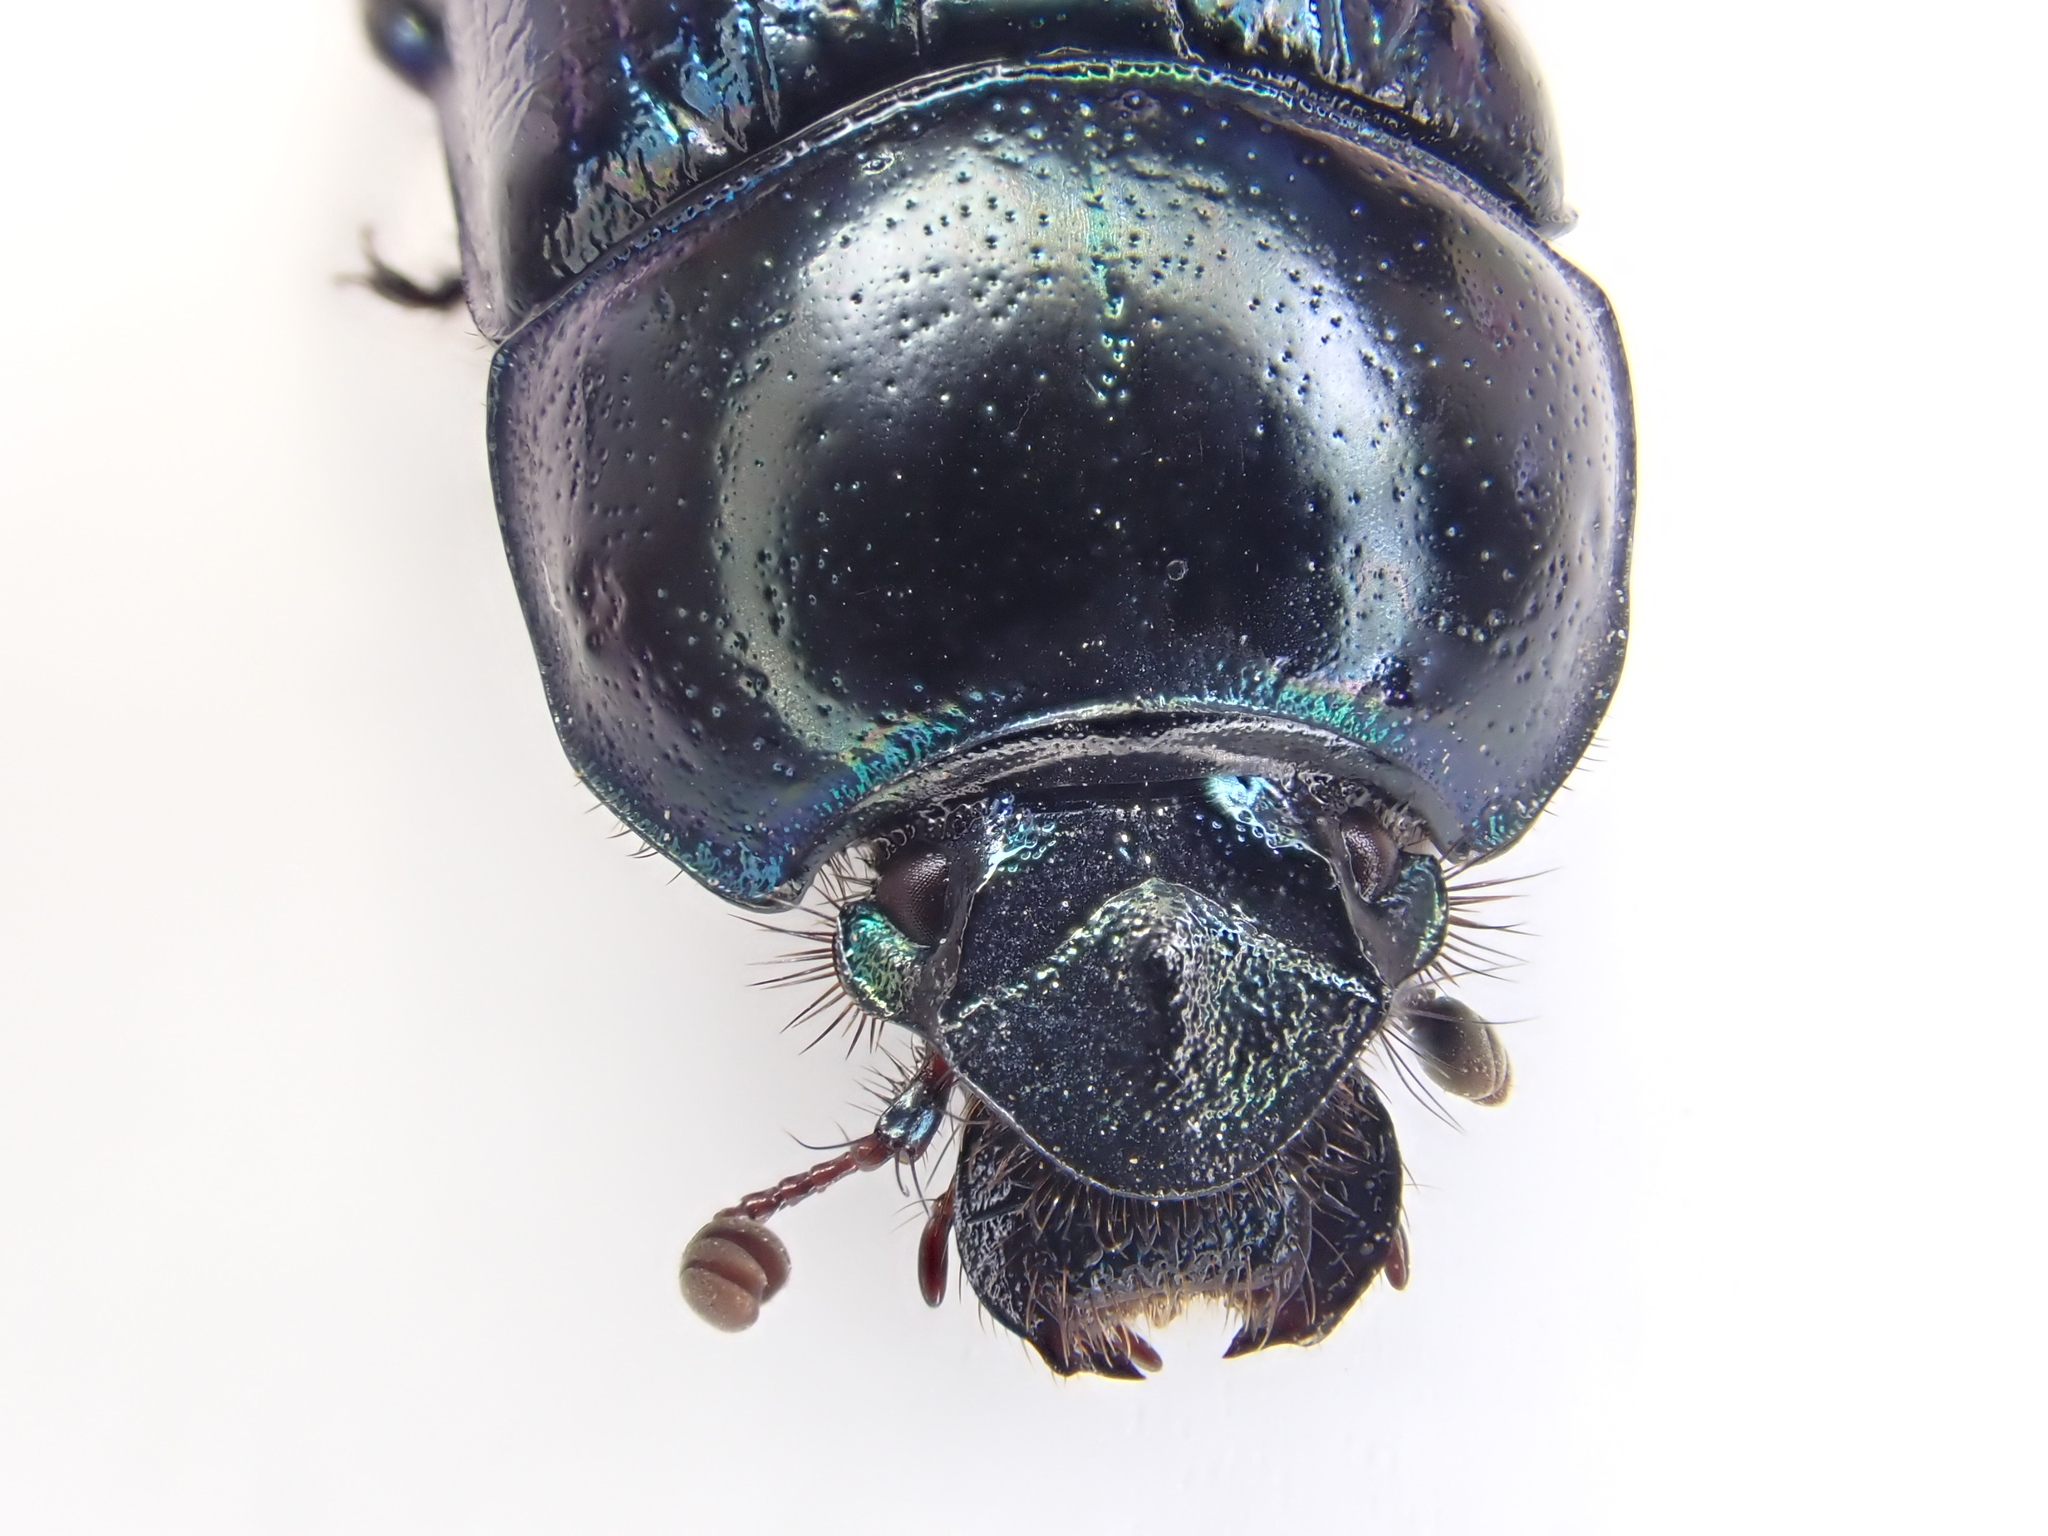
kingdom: Animalia
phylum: Arthropoda
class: Insecta
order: Coleoptera
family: Geotrupidae
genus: Anoplotrupes
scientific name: Anoplotrupes stercorosus
